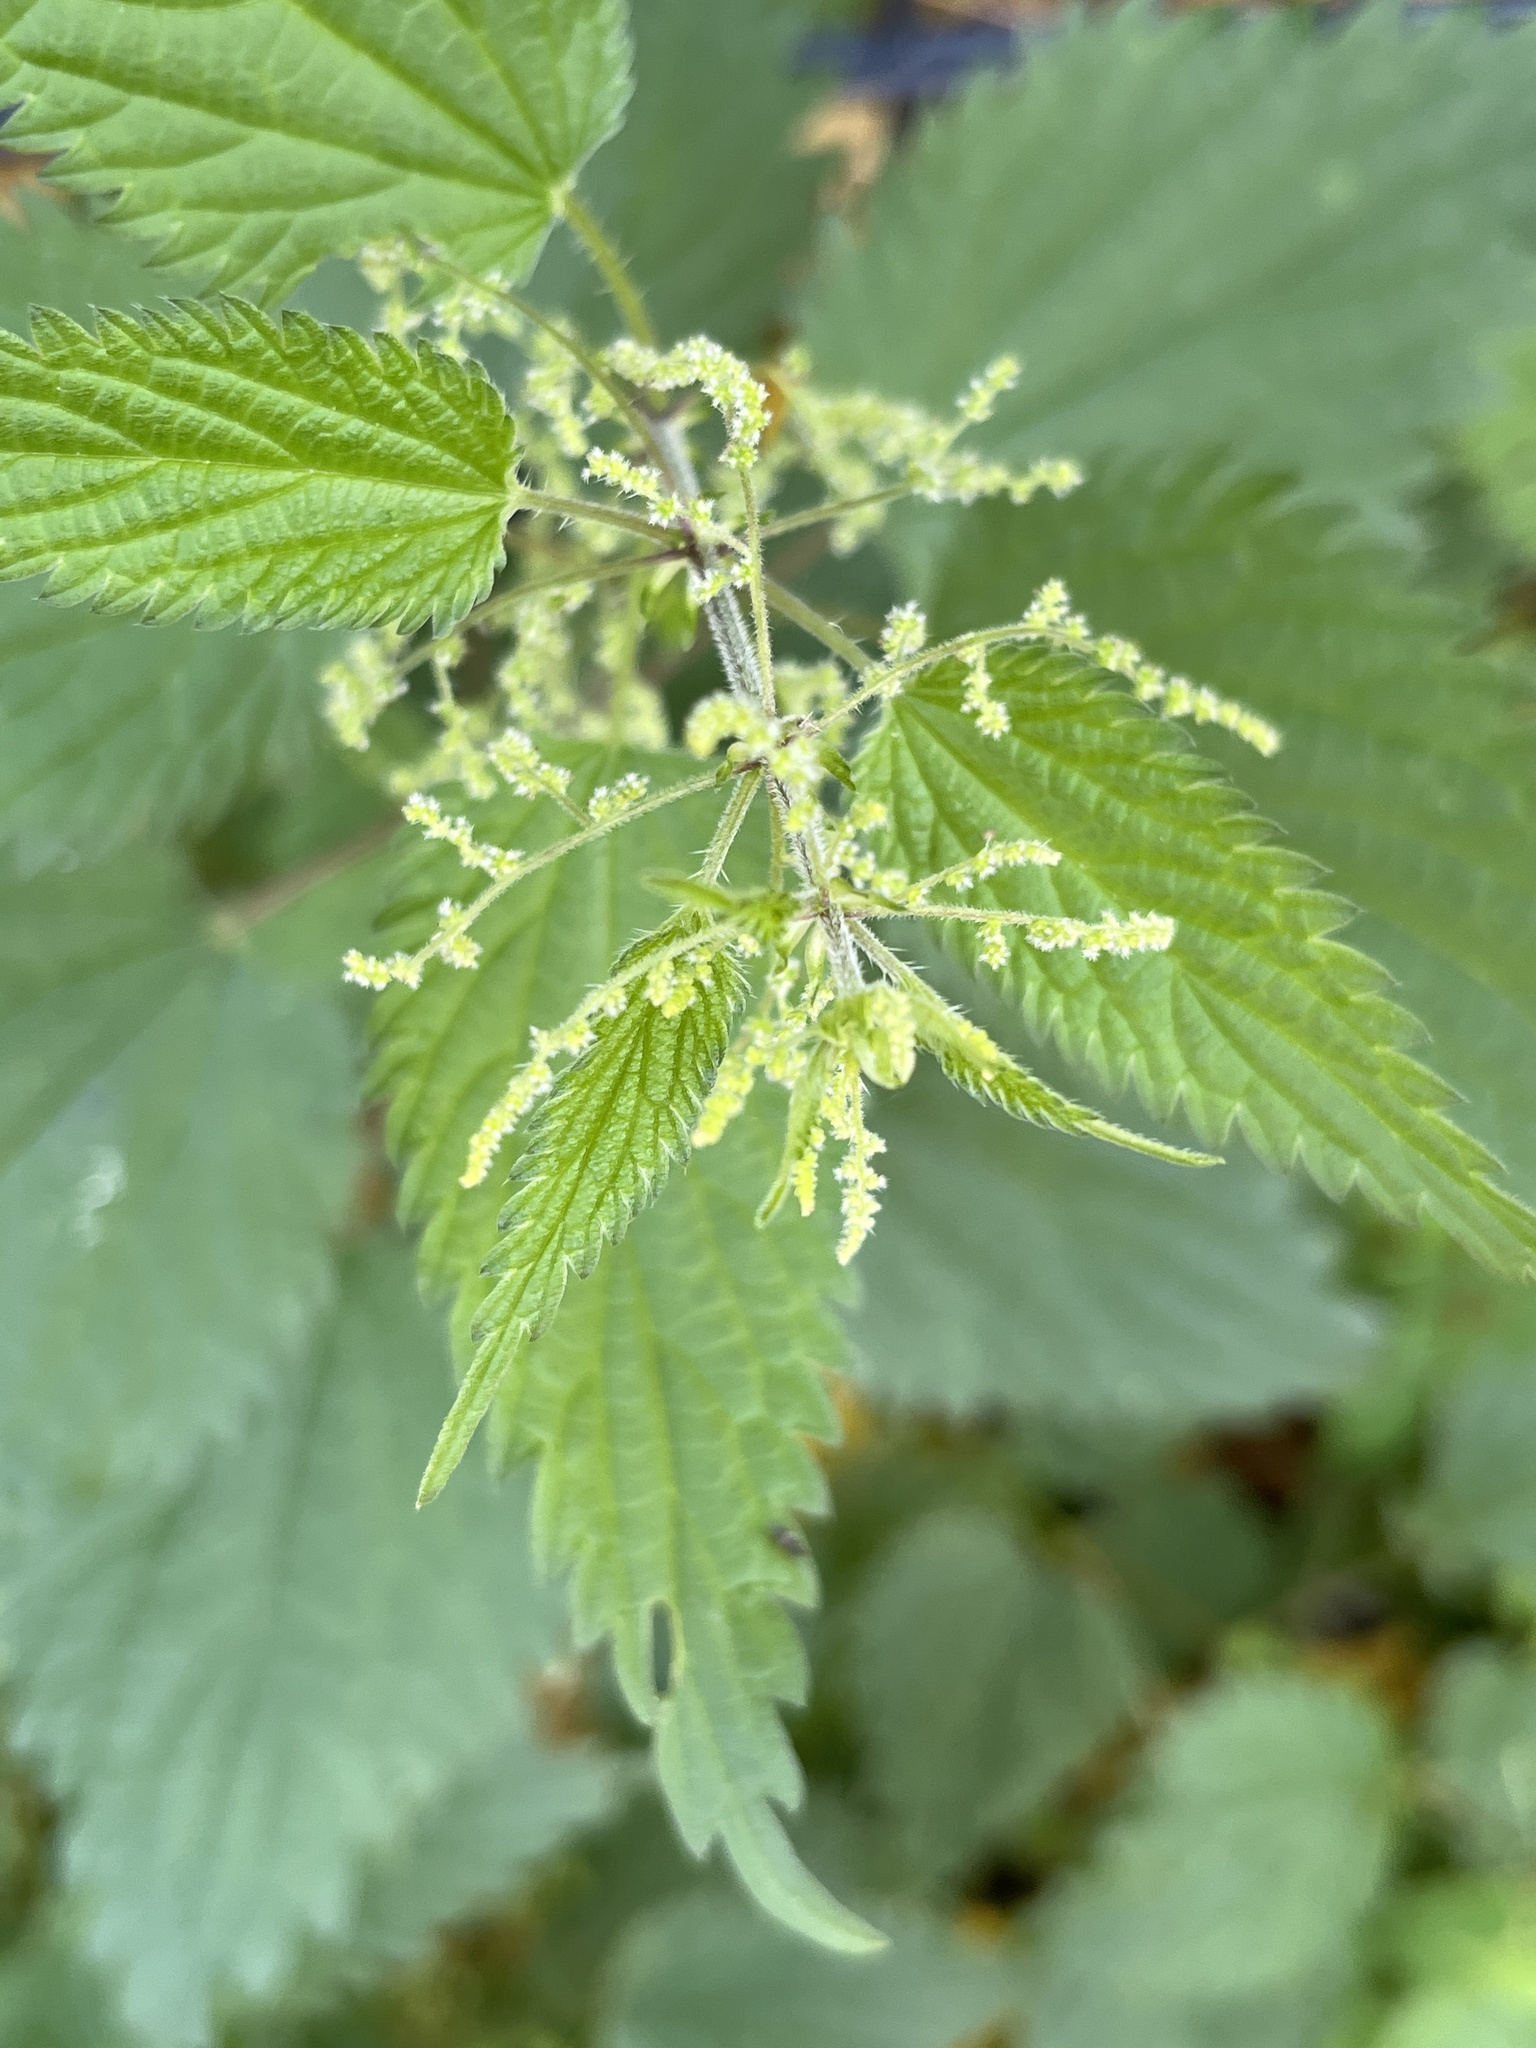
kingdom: Plantae
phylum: Tracheophyta
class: Magnoliopsida
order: Rosales
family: Urticaceae
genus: Urtica
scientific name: Urtica dioica
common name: Common nettle
